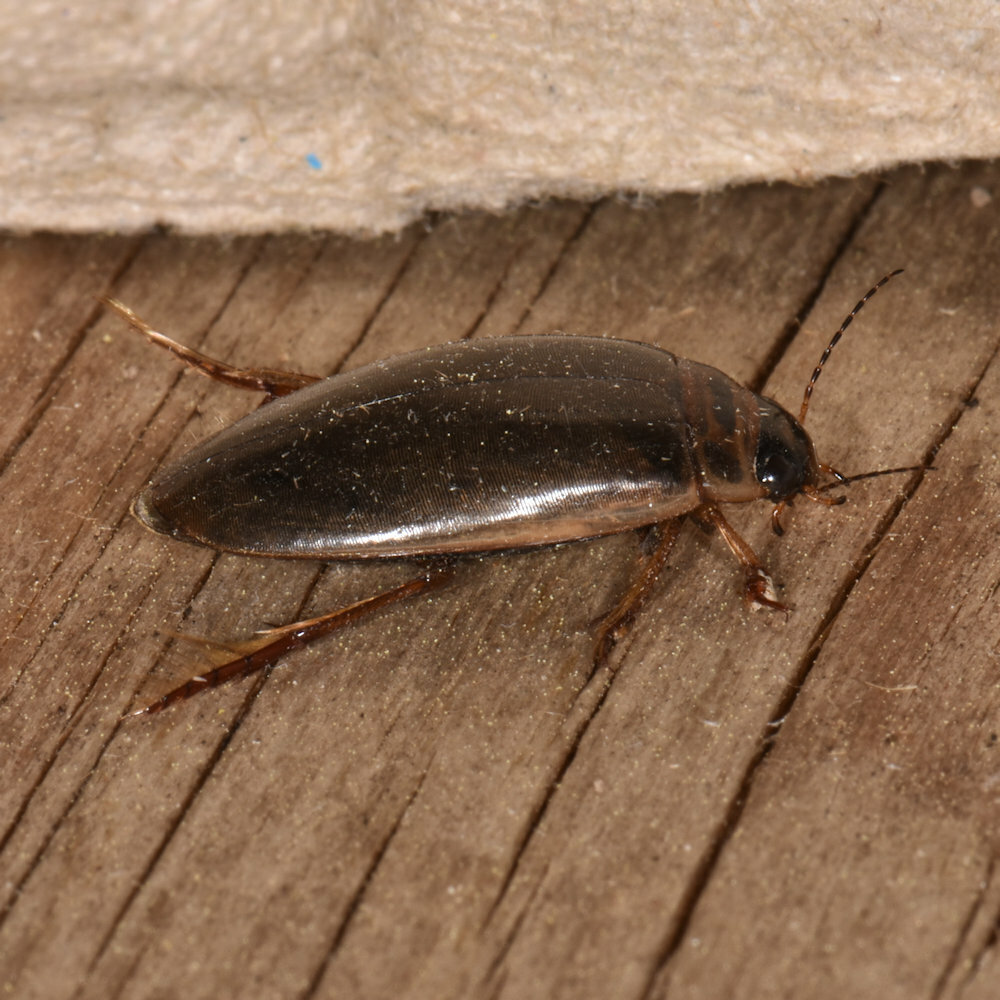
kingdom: Animalia
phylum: Arthropoda
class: Insecta
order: Coleoptera
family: Dytiscidae
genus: Colymbetes
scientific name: Colymbetes sculptilis
